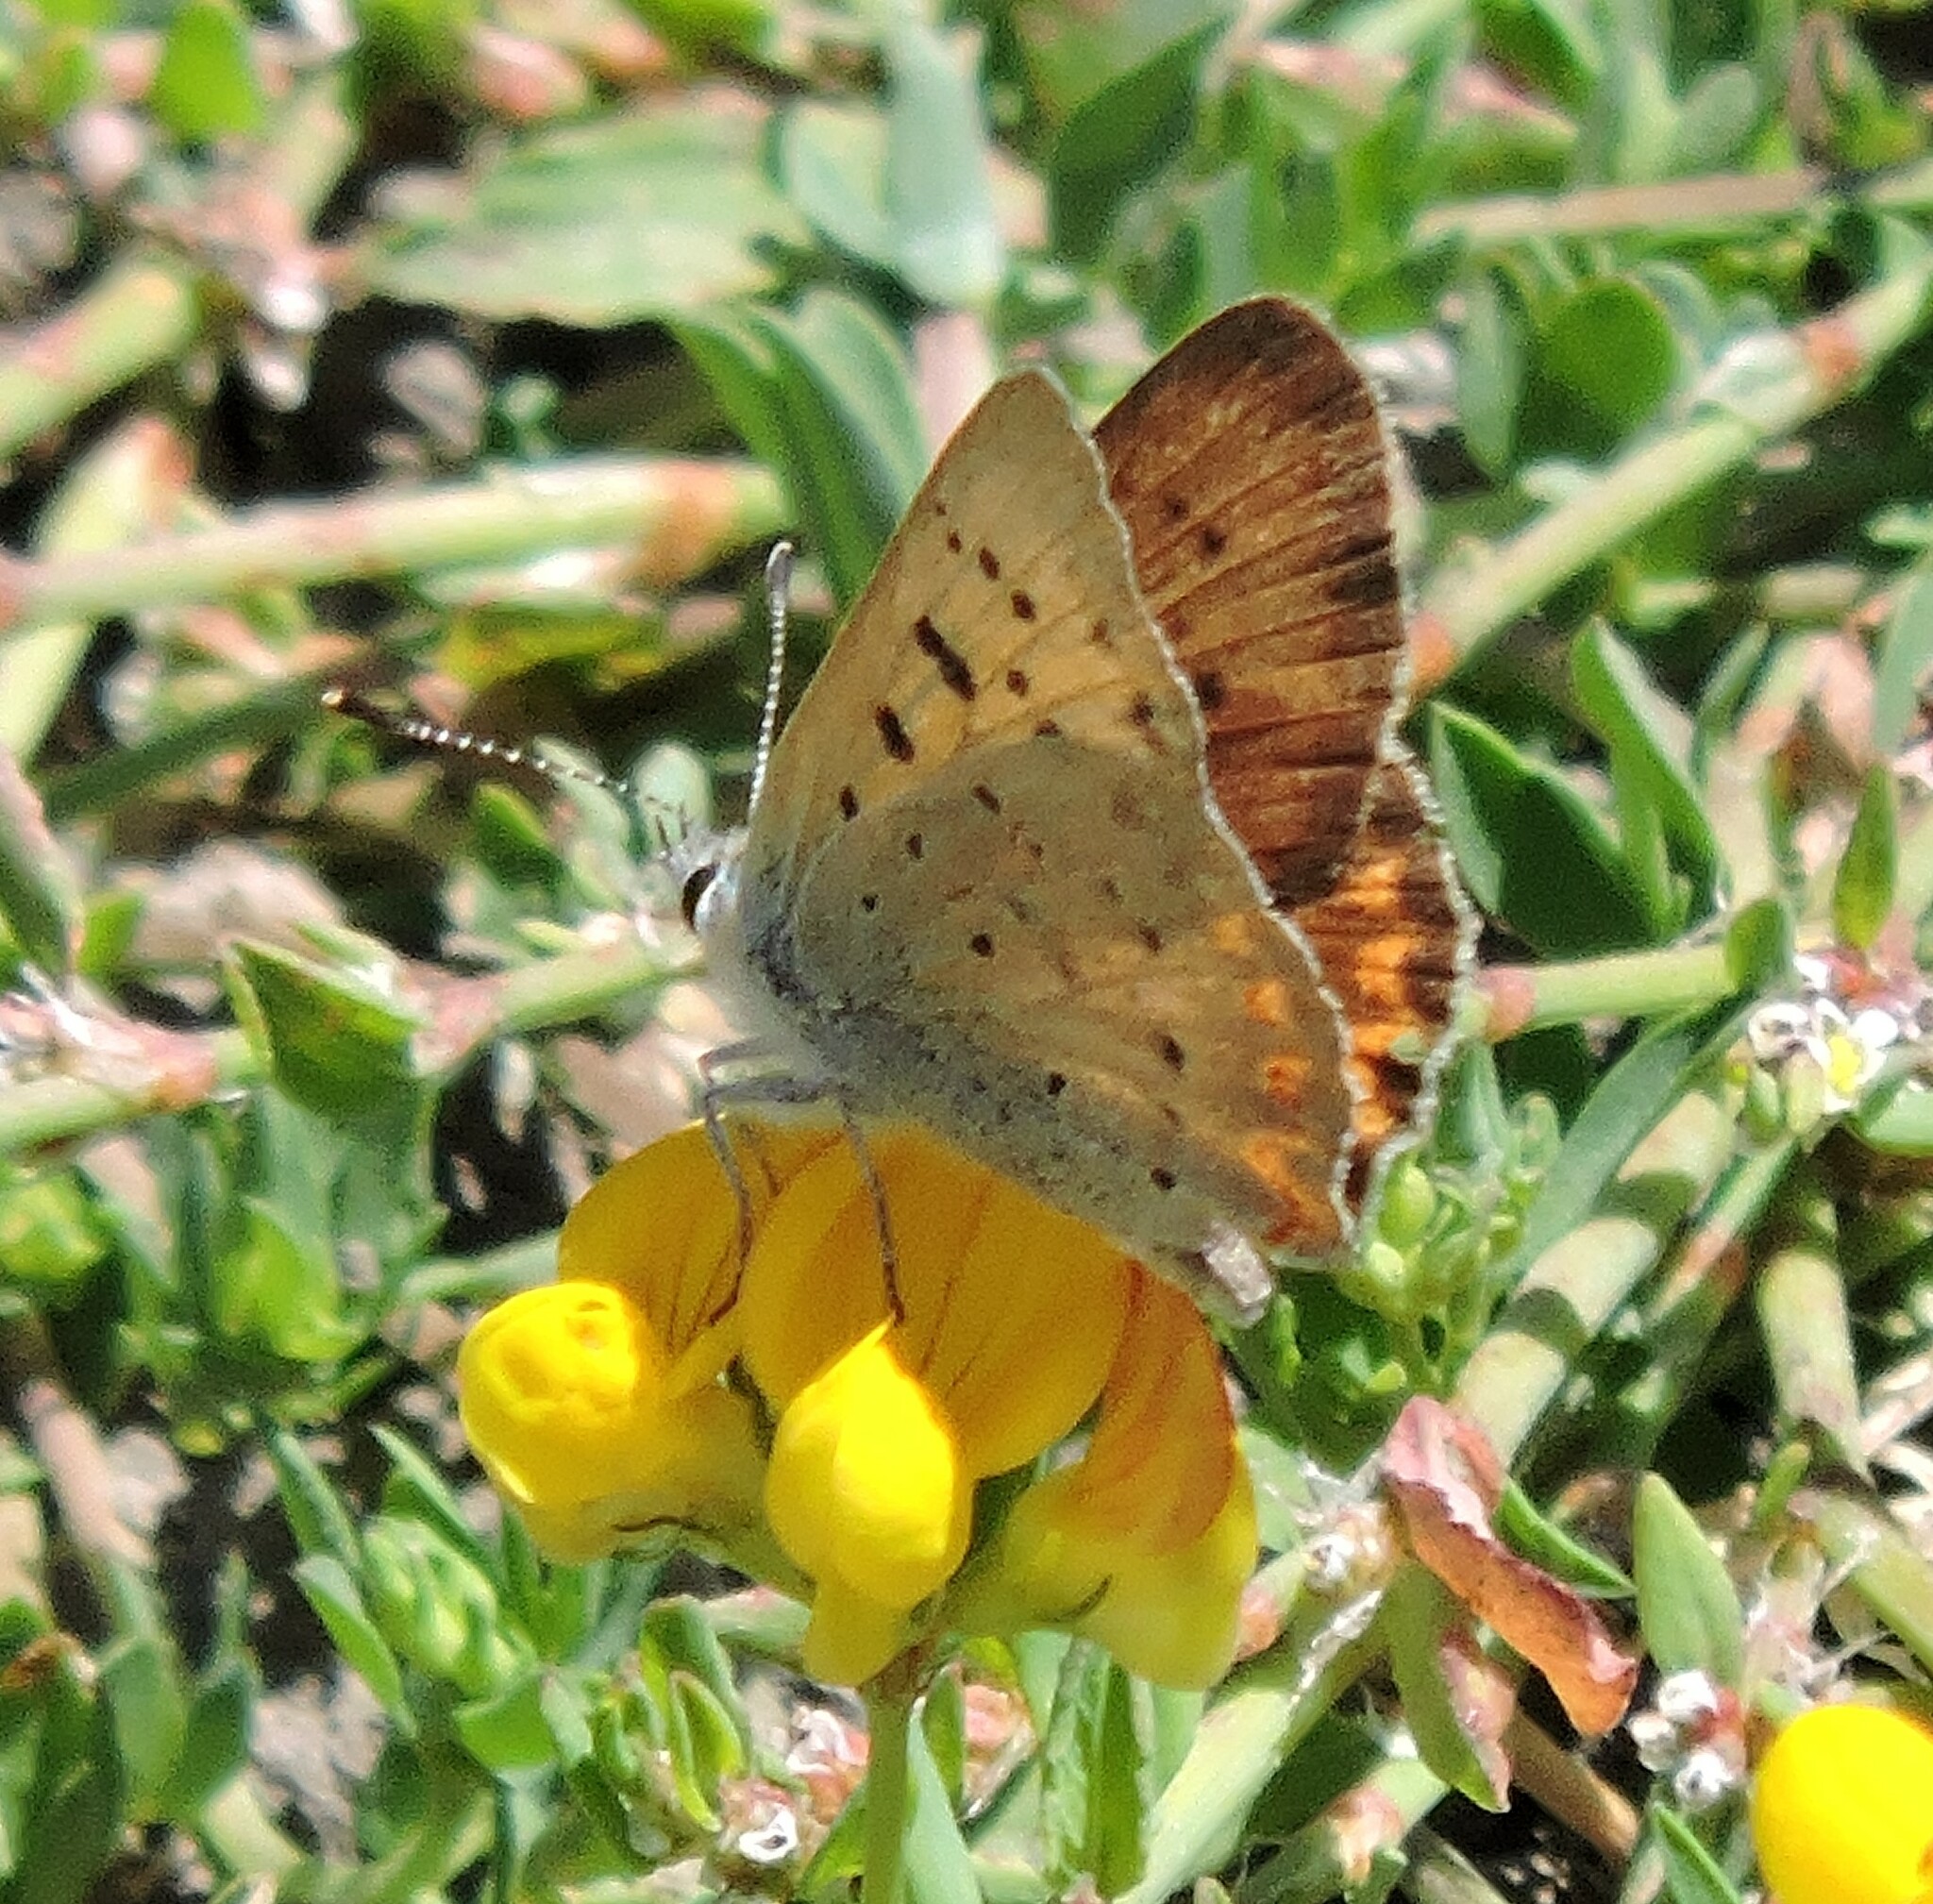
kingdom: Animalia
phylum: Arthropoda
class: Insecta
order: Lepidoptera
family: Lycaenidae
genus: Tharsalea
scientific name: Tharsalea helloides
